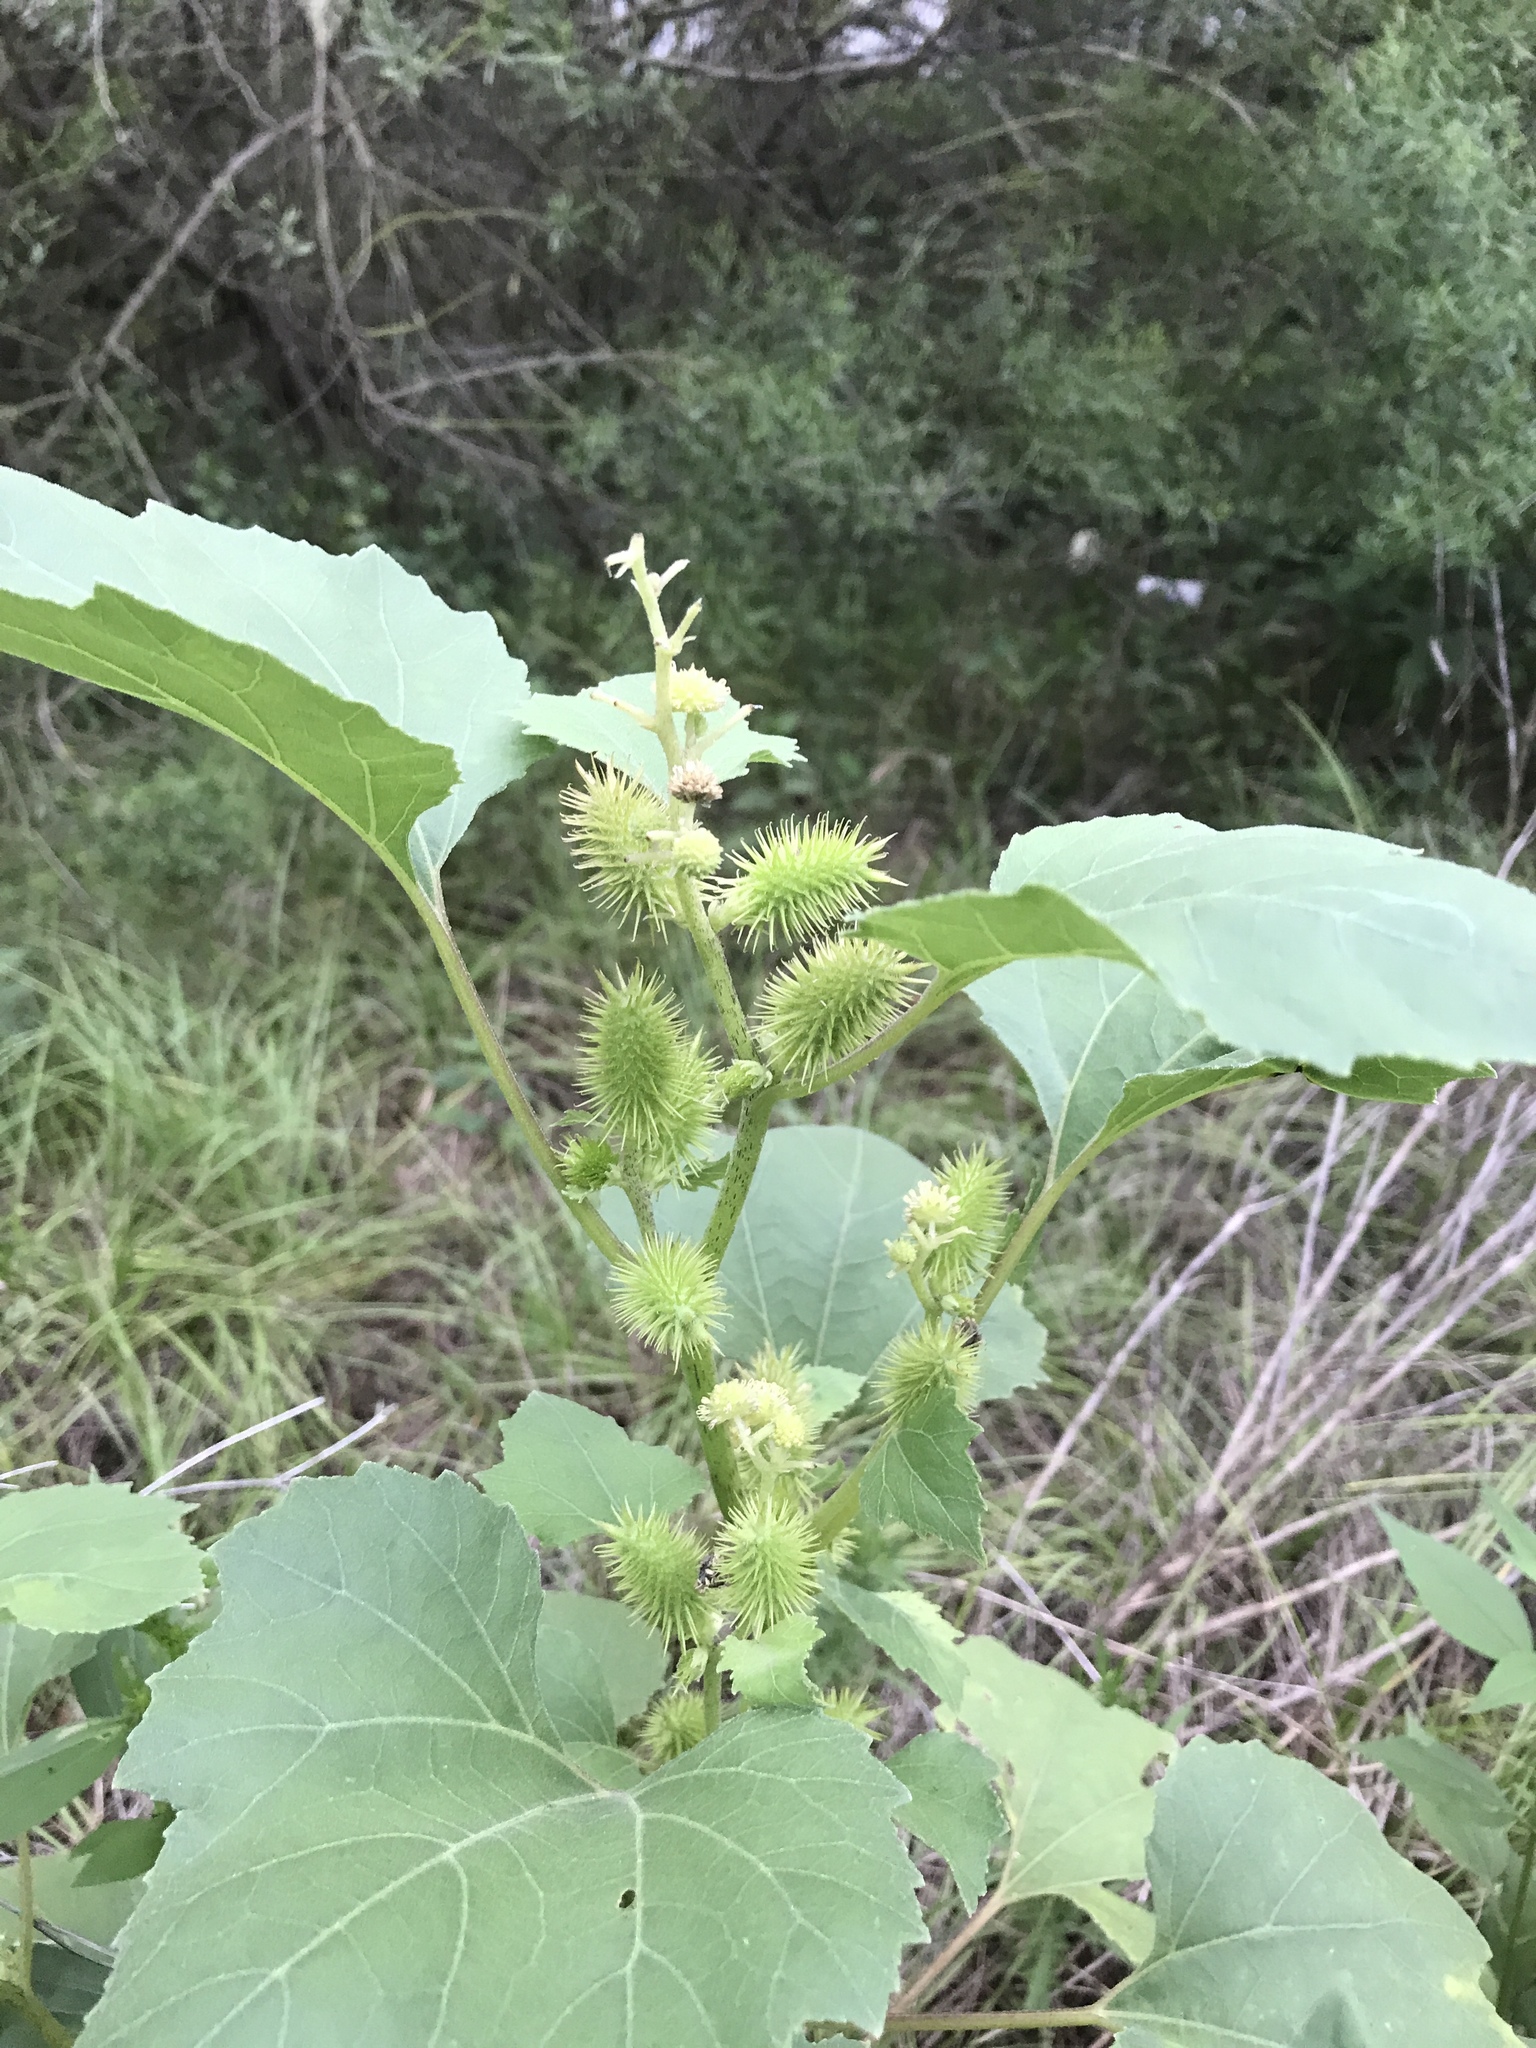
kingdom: Plantae
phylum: Tracheophyta
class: Magnoliopsida
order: Asterales
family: Asteraceae
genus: Xanthium
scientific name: Xanthium strumarium
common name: Rough cocklebur
